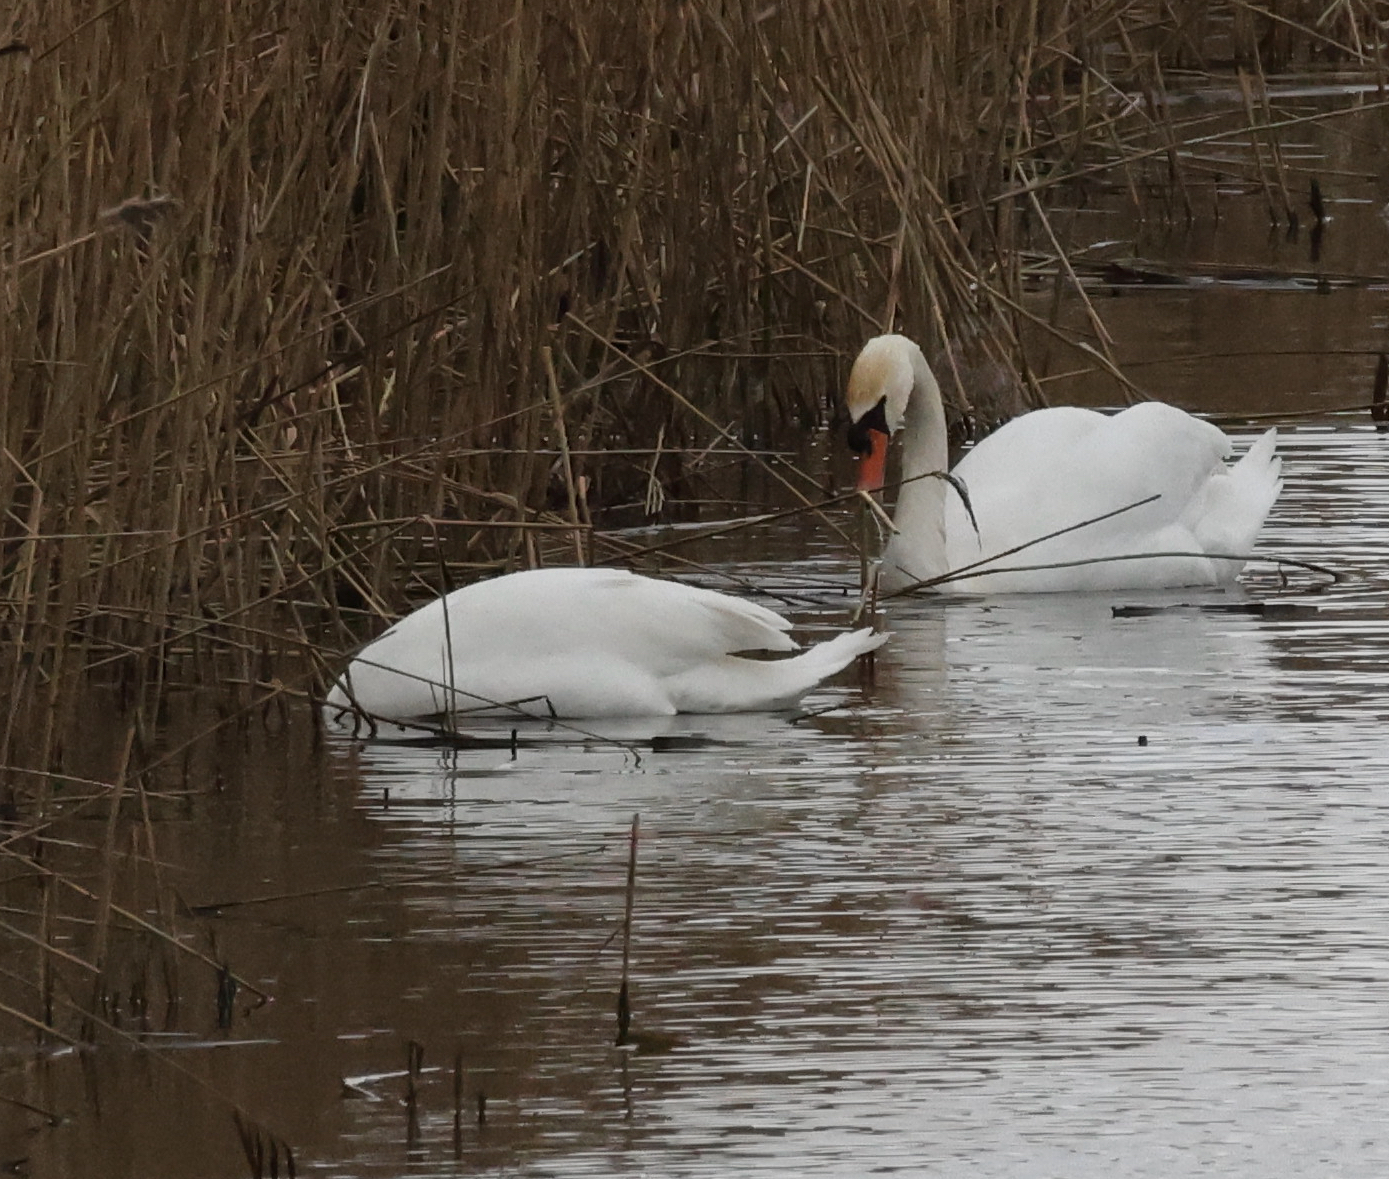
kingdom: Animalia
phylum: Chordata
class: Aves
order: Anseriformes
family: Anatidae
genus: Cygnus
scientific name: Cygnus olor
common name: Mute swan
